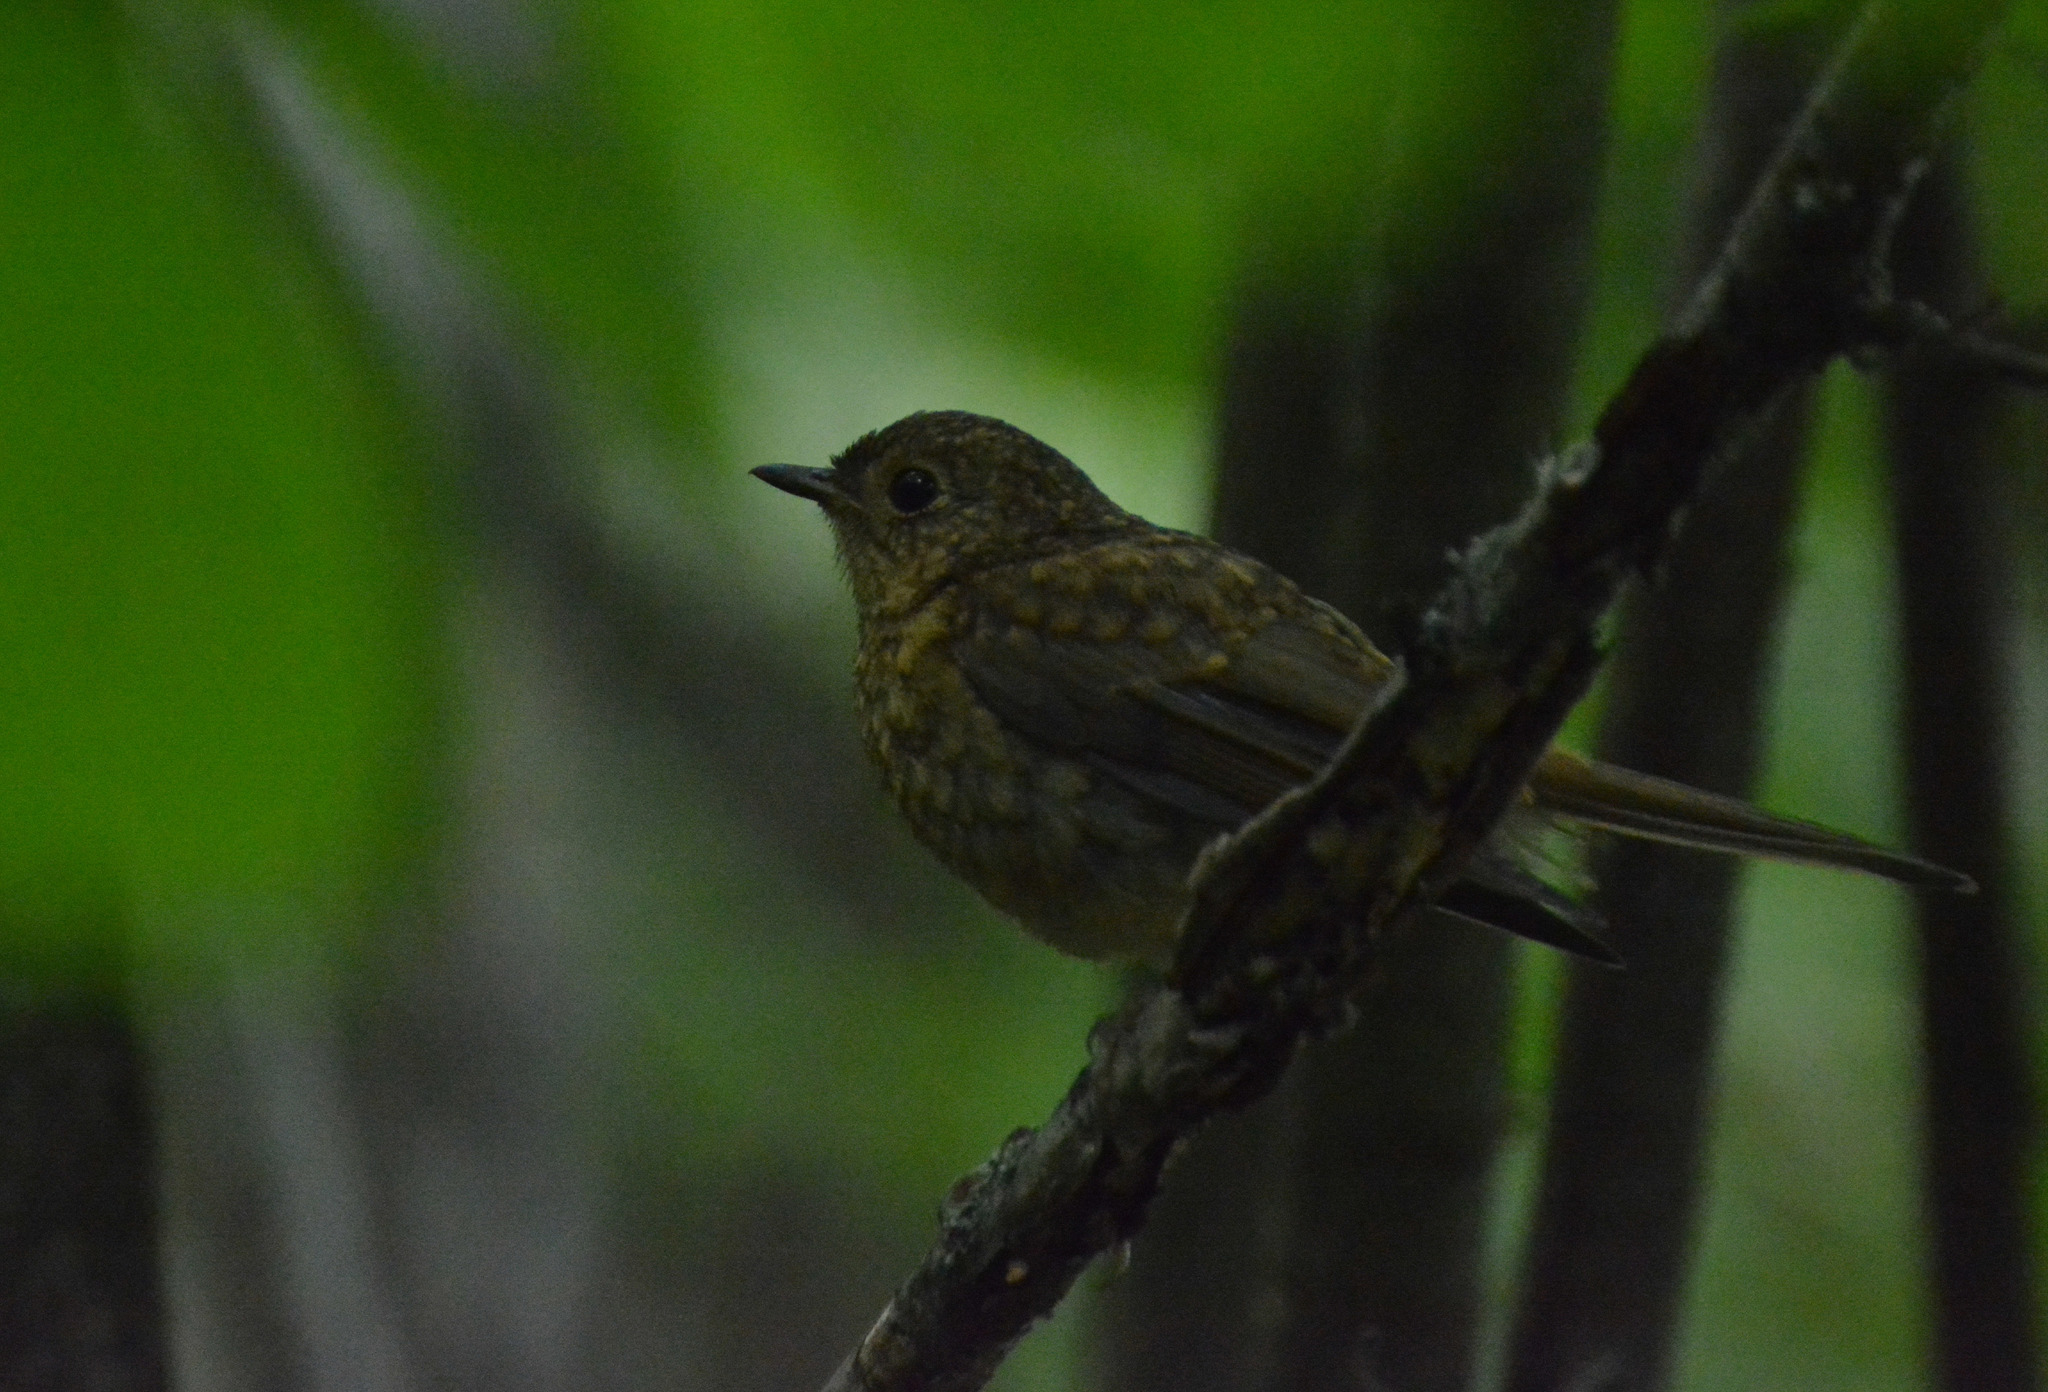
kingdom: Animalia
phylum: Chordata
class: Aves
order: Passeriformes
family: Muscicapidae
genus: Erithacus
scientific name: Erithacus rubecula
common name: European robin
